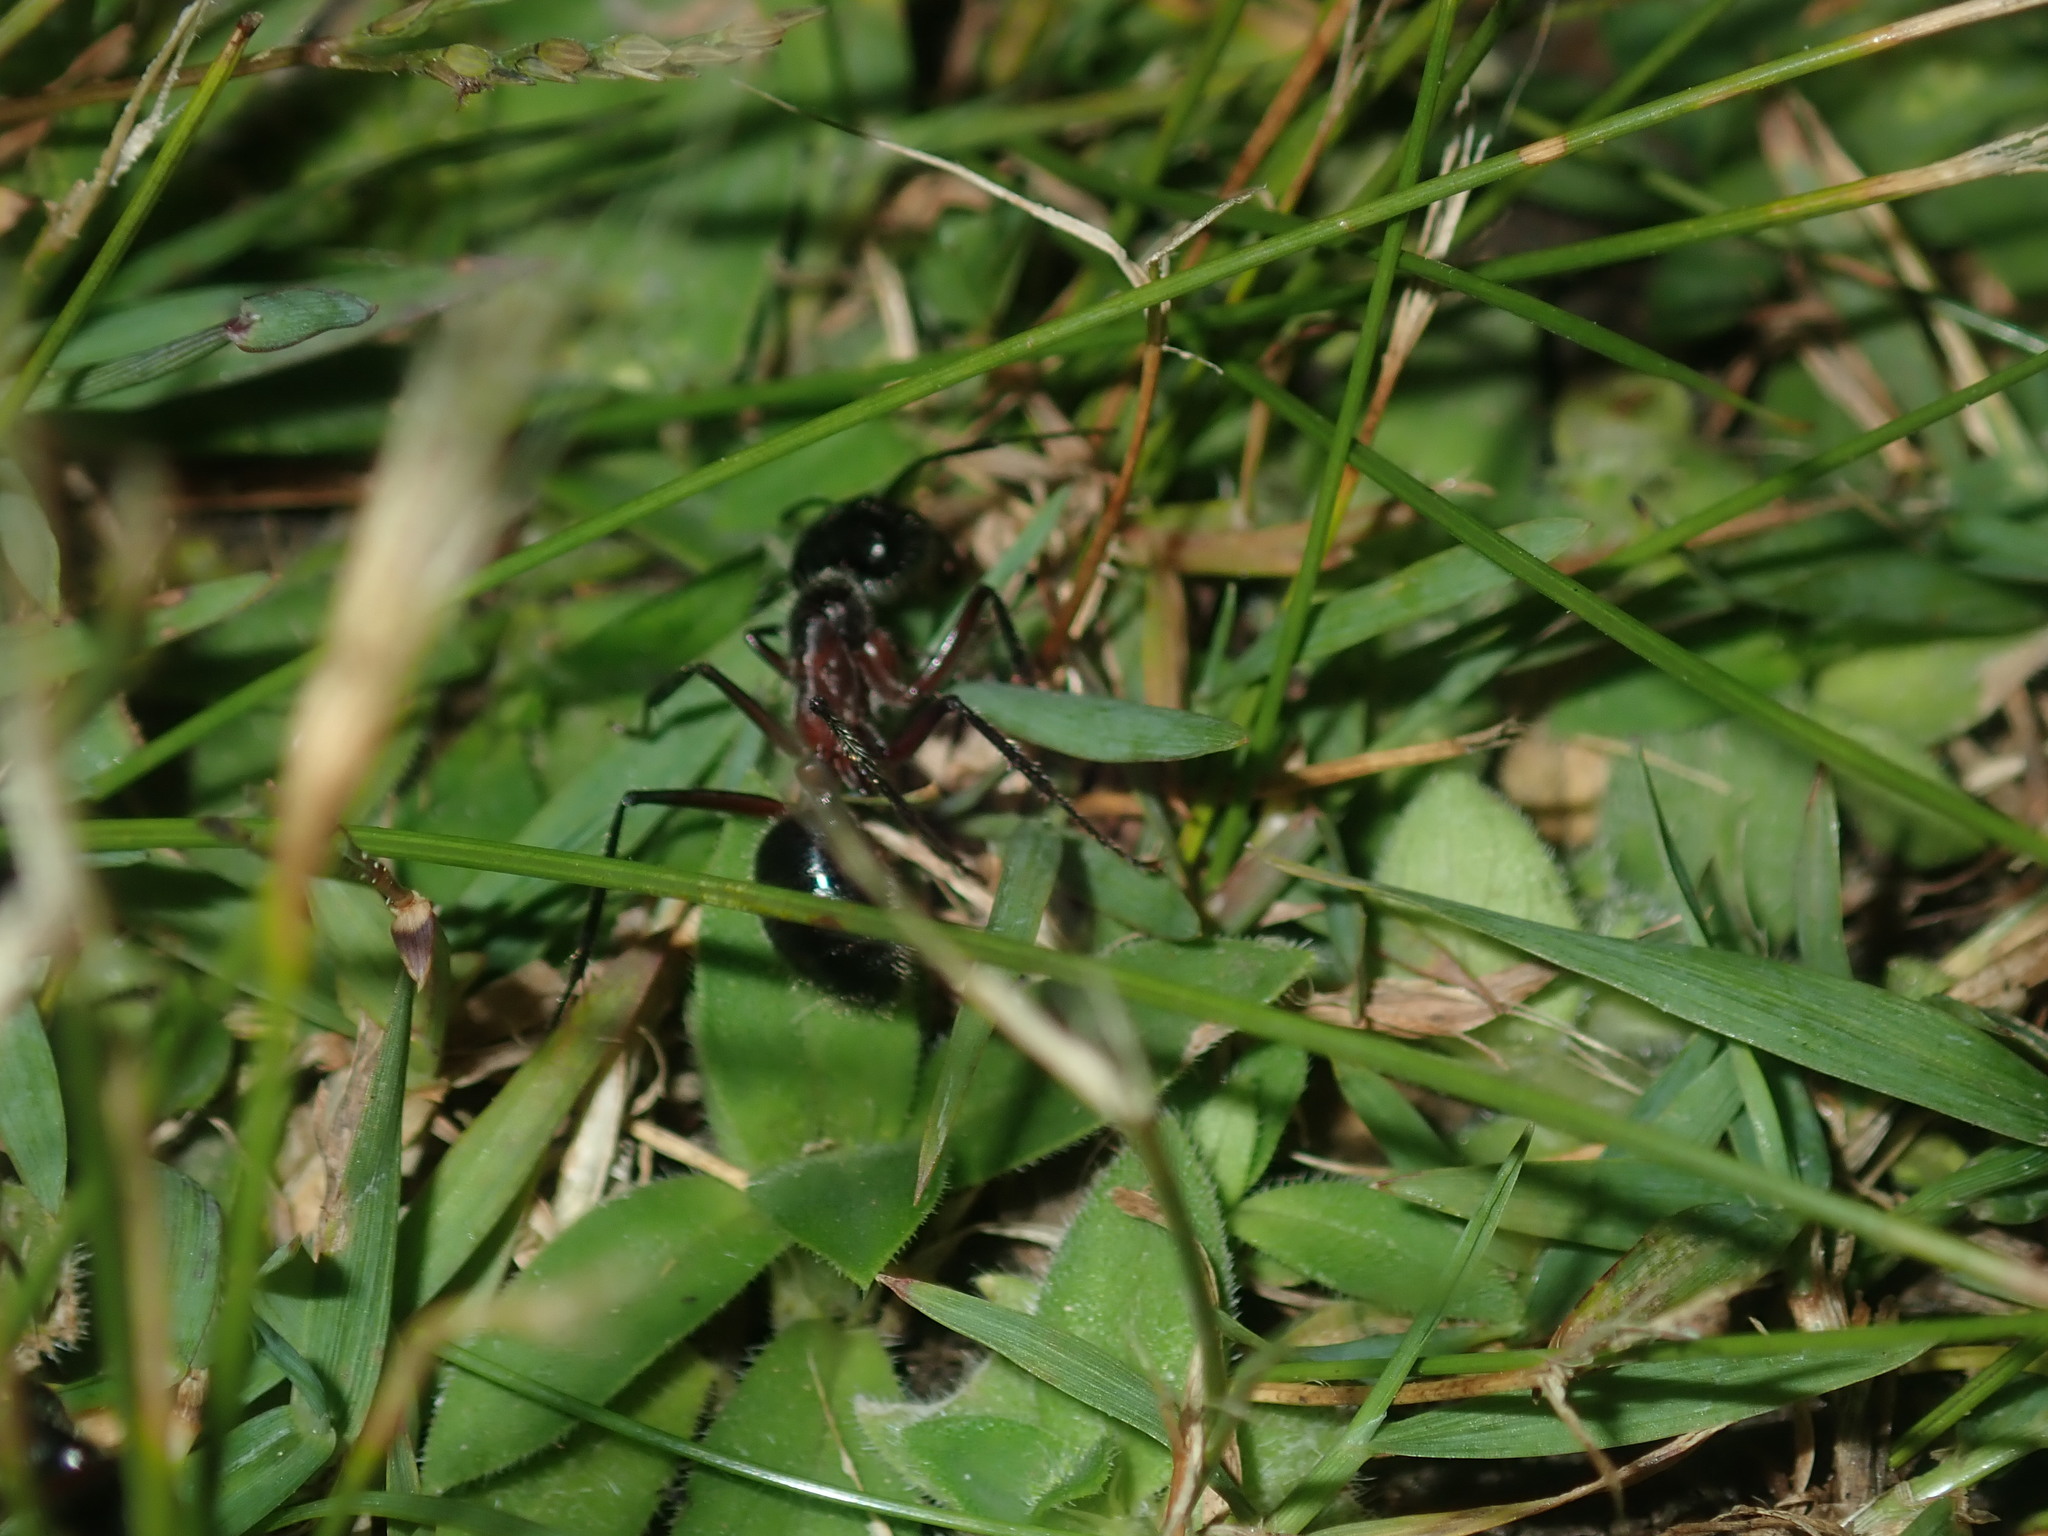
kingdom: Animalia
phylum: Arthropoda
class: Insecta
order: Hymenoptera
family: Formicidae
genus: Camponotus
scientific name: Camponotus intrepidus
